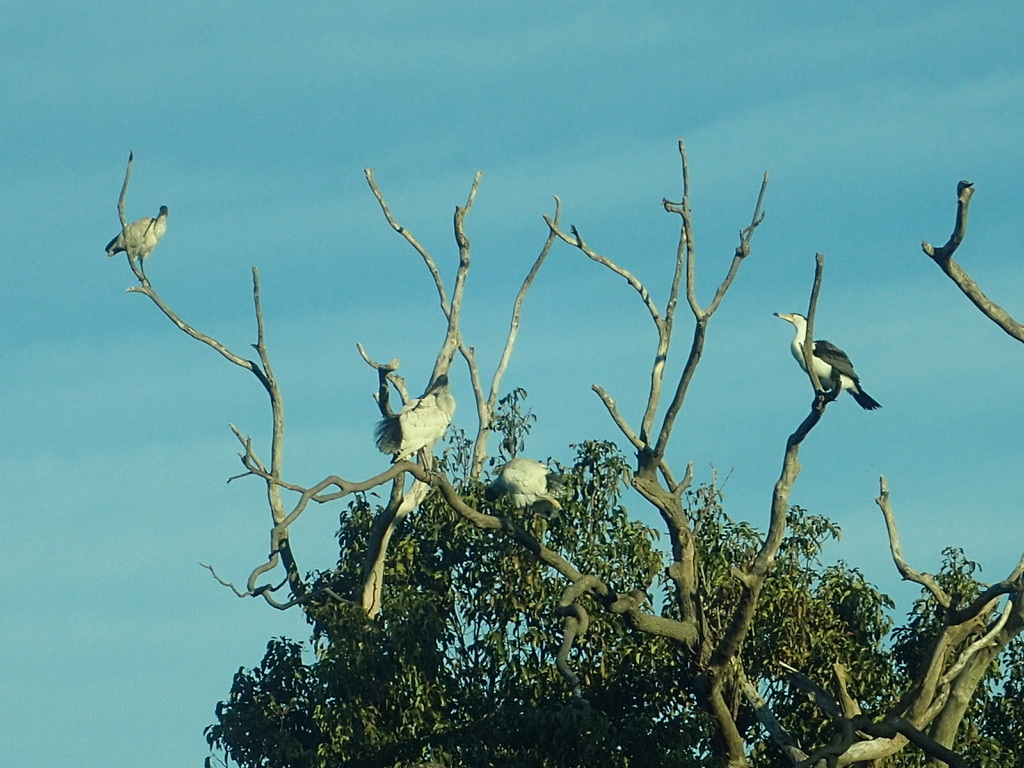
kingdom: Animalia
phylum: Chordata
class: Aves
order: Suliformes
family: Phalacrocoracidae
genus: Phalacrocorax
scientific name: Phalacrocorax varius
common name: Pied cormorant
